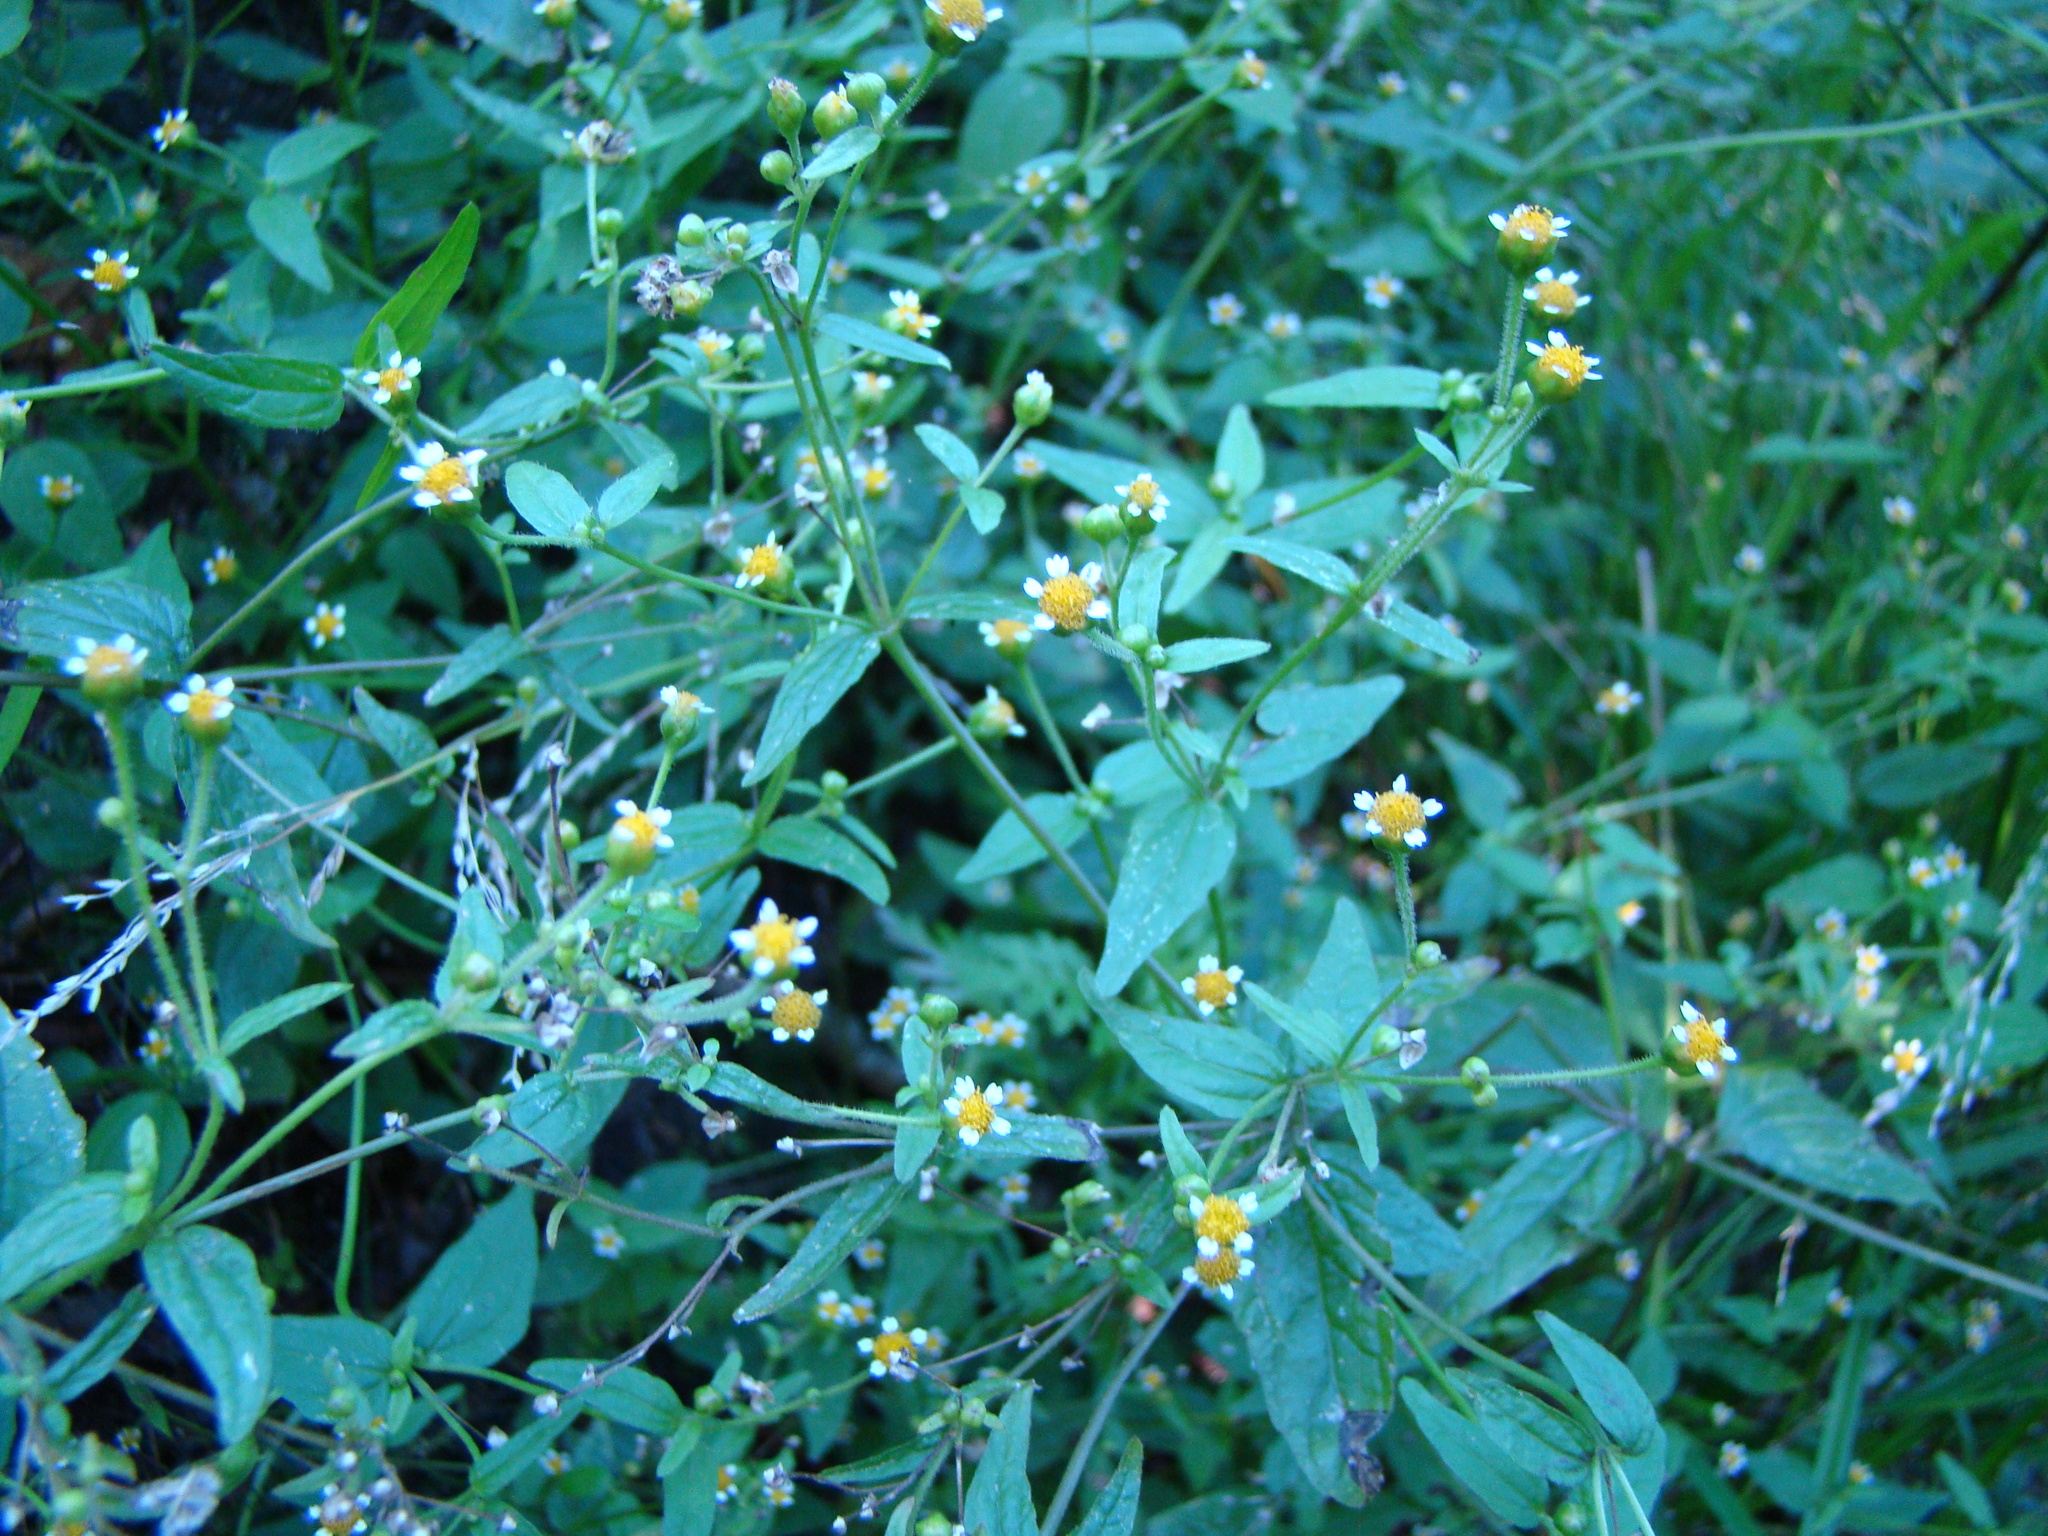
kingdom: Plantae
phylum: Tracheophyta
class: Magnoliopsida
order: Asterales
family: Asteraceae
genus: Galinsoga
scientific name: Galinsoga parviflora
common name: Gallant soldier
